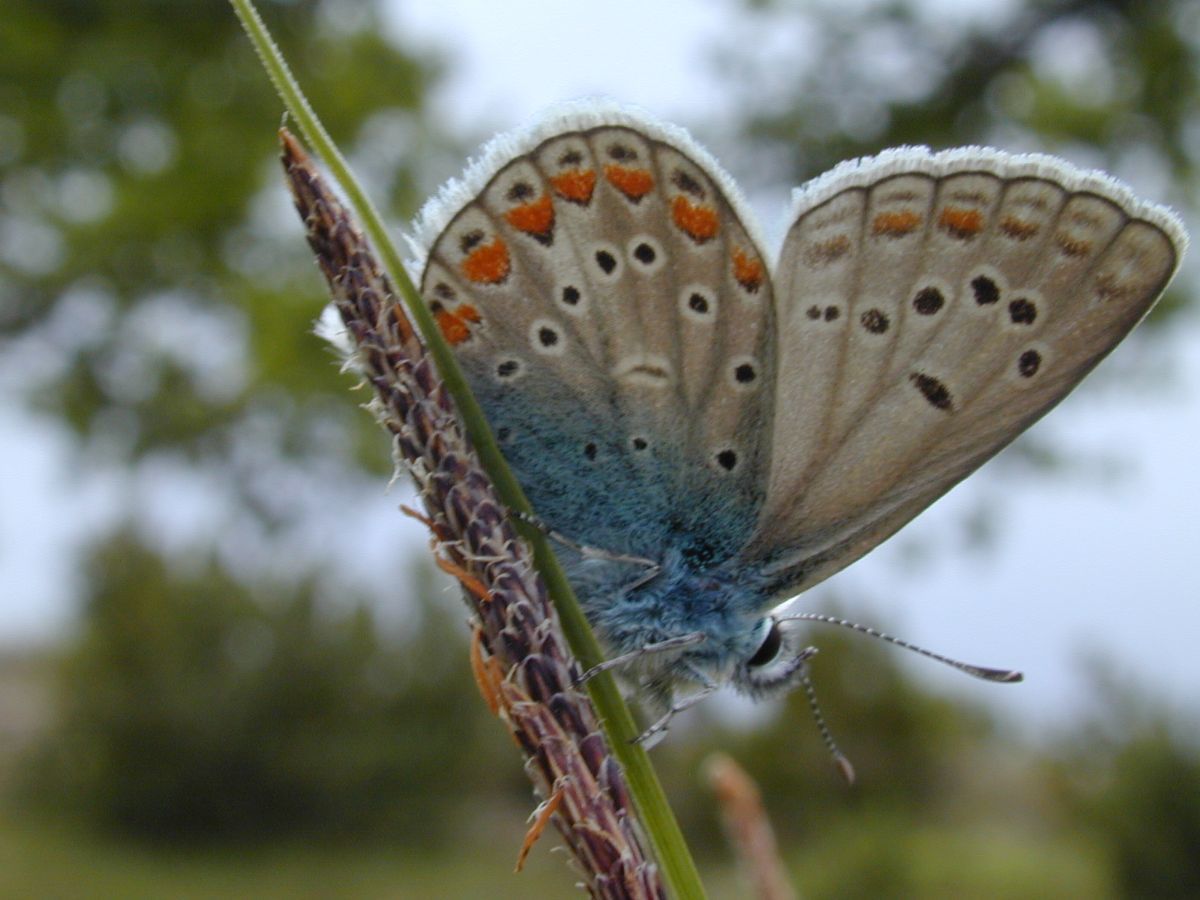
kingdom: Animalia
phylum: Arthropoda
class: Insecta
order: Lepidoptera
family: Lycaenidae
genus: Polyommatus
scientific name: Polyommatus thersites
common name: Chapman's blue
